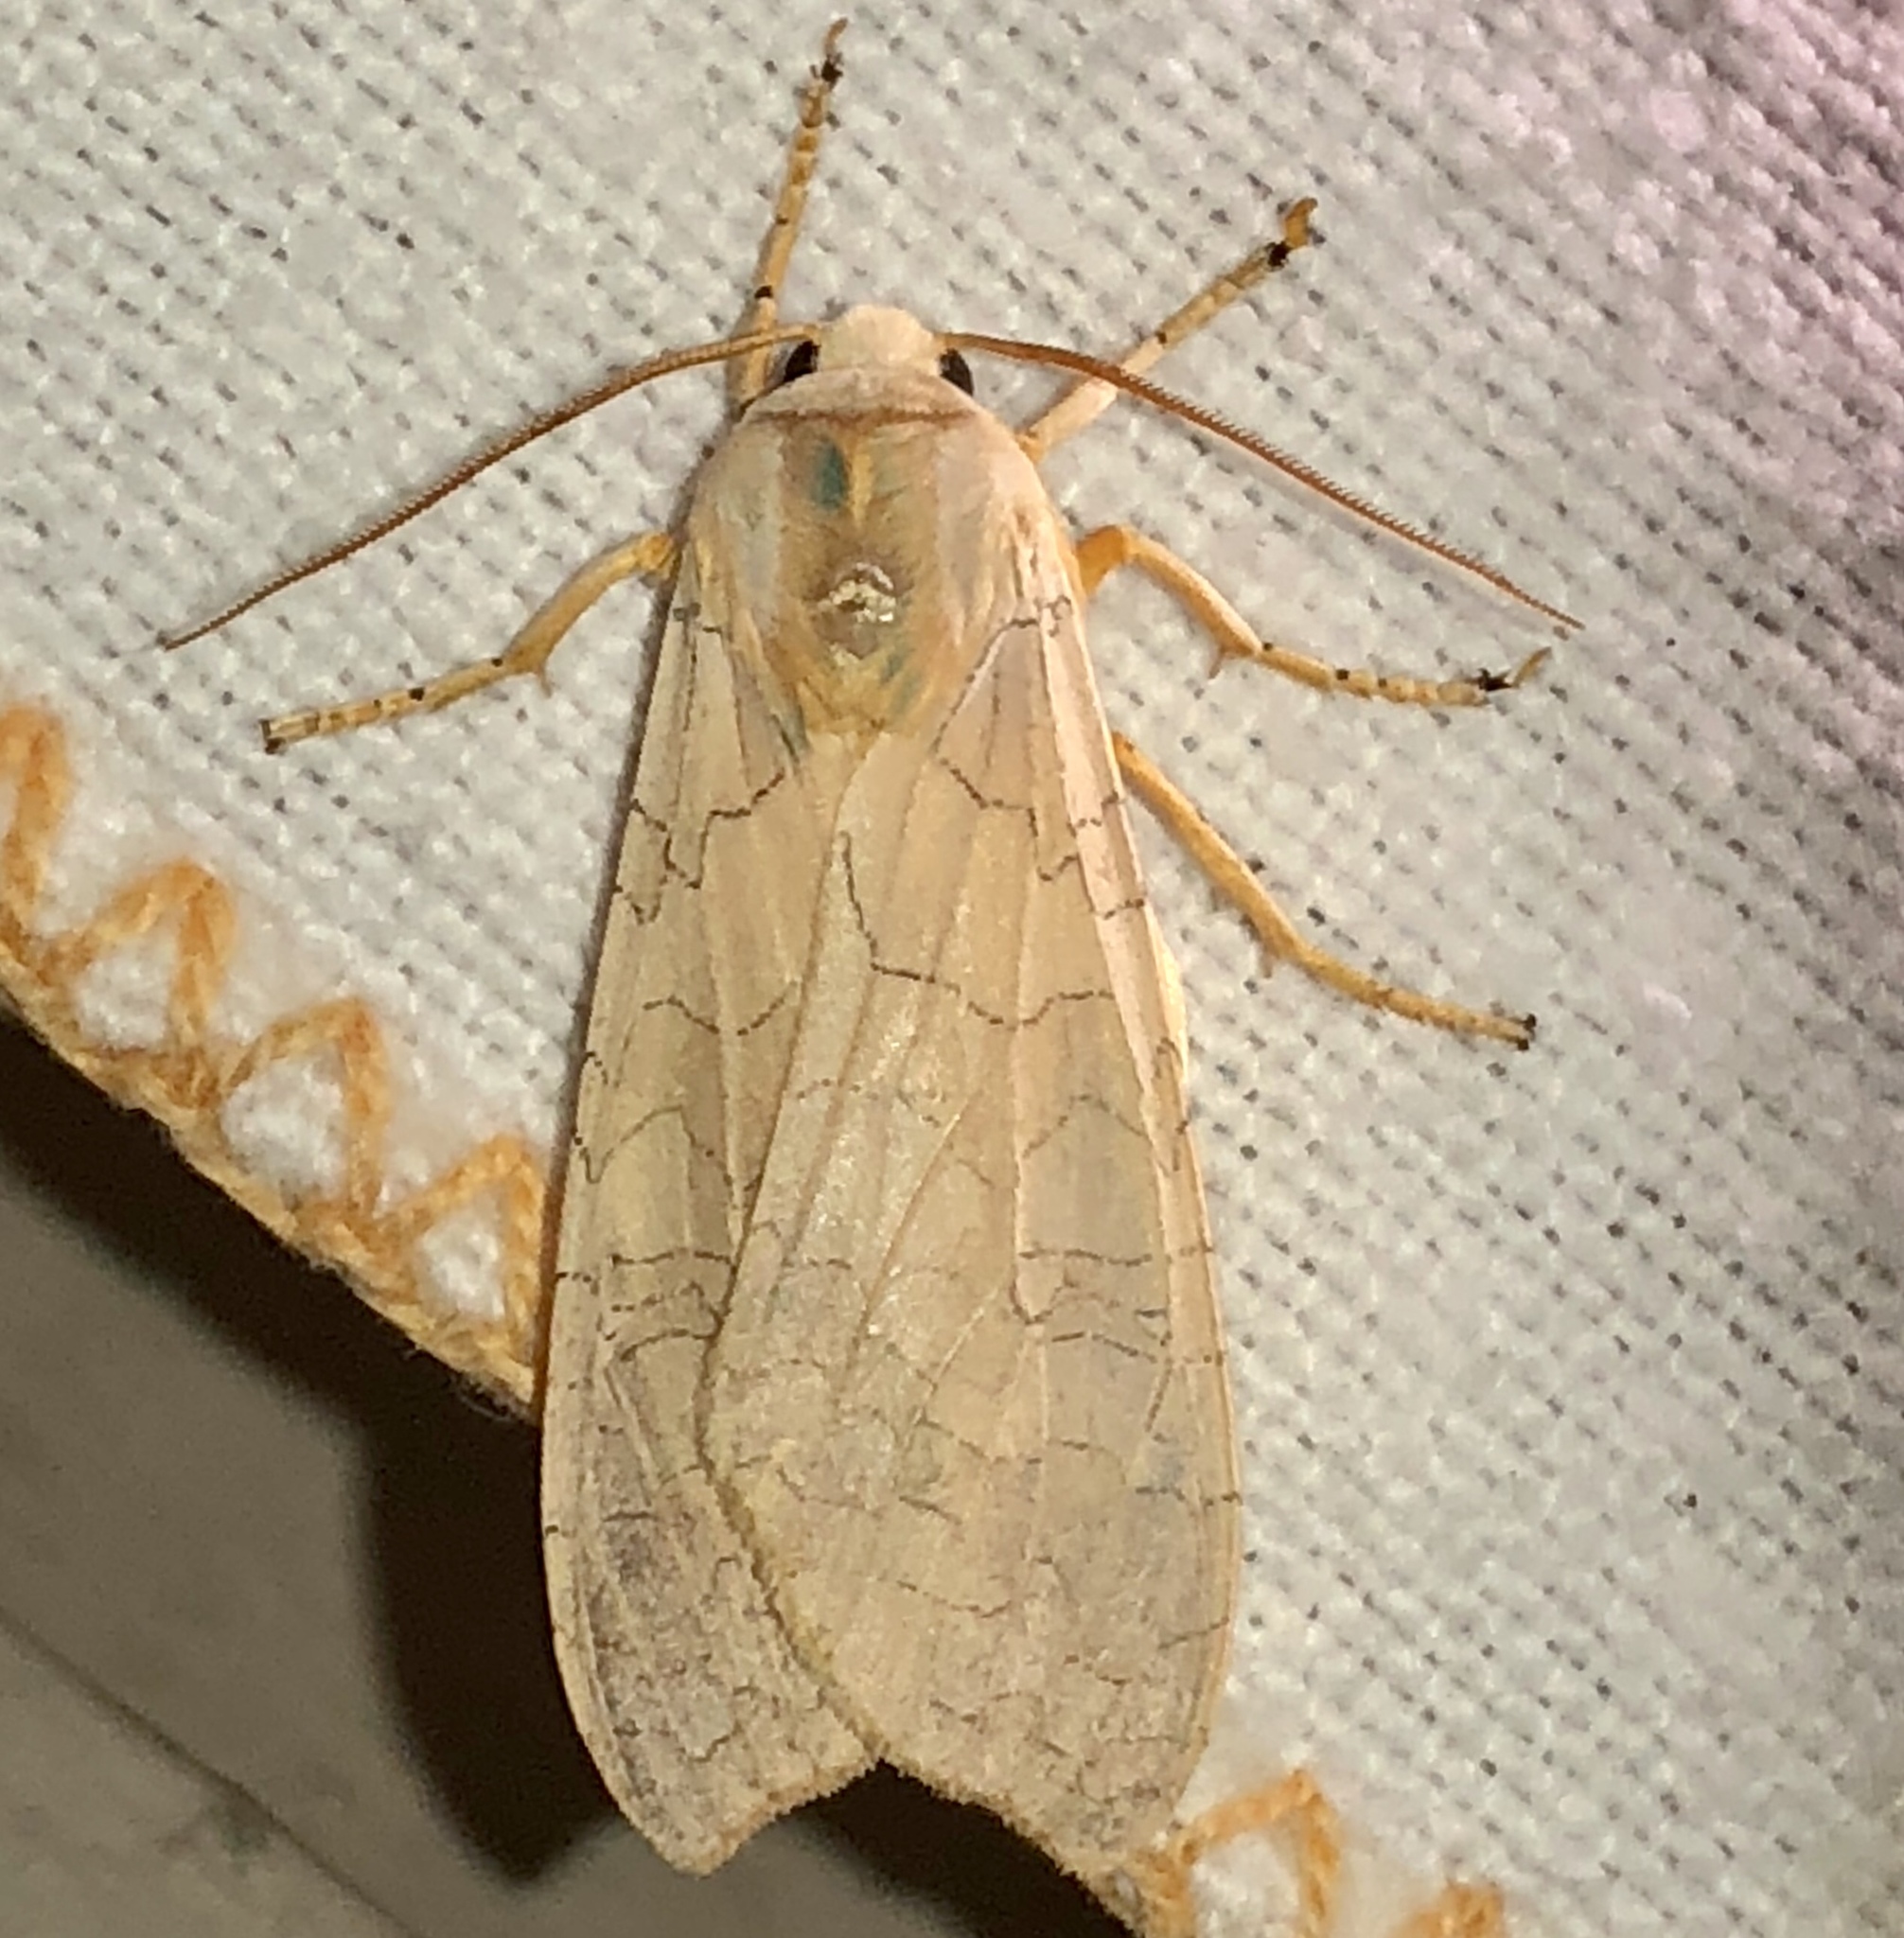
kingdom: Animalia
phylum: Arthropoda
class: Insecta
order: Lepidoptera
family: Erebidae
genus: Halysidota
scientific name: Halysidota tessellaris
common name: Banded tussock moth
